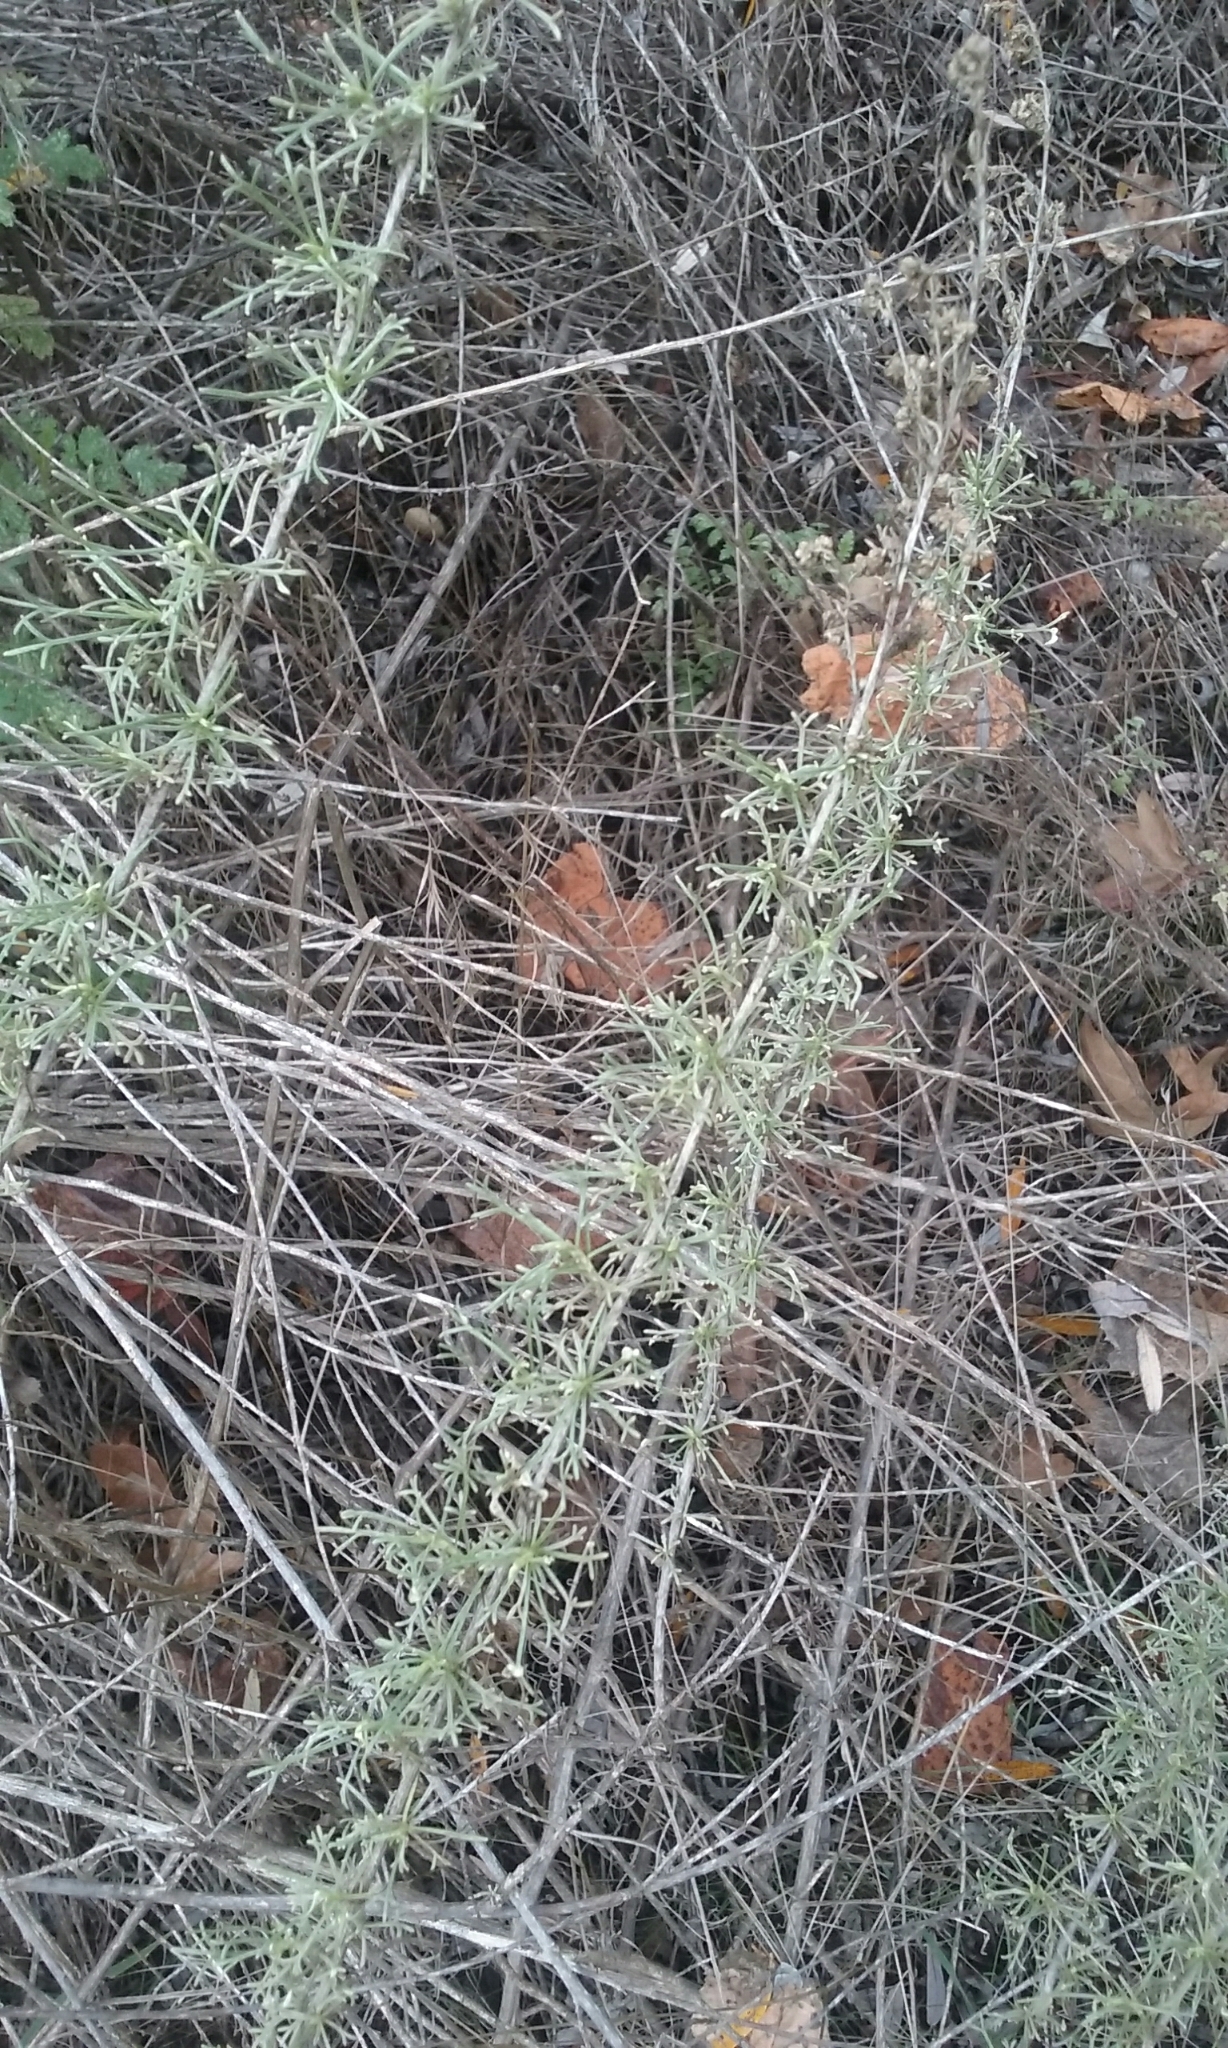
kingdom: Plantae
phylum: Tracheophyta
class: Magnoliopsida
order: Asterales
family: Asteraceae
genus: Artemisia
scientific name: Artemisia californica
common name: California sagebrush
